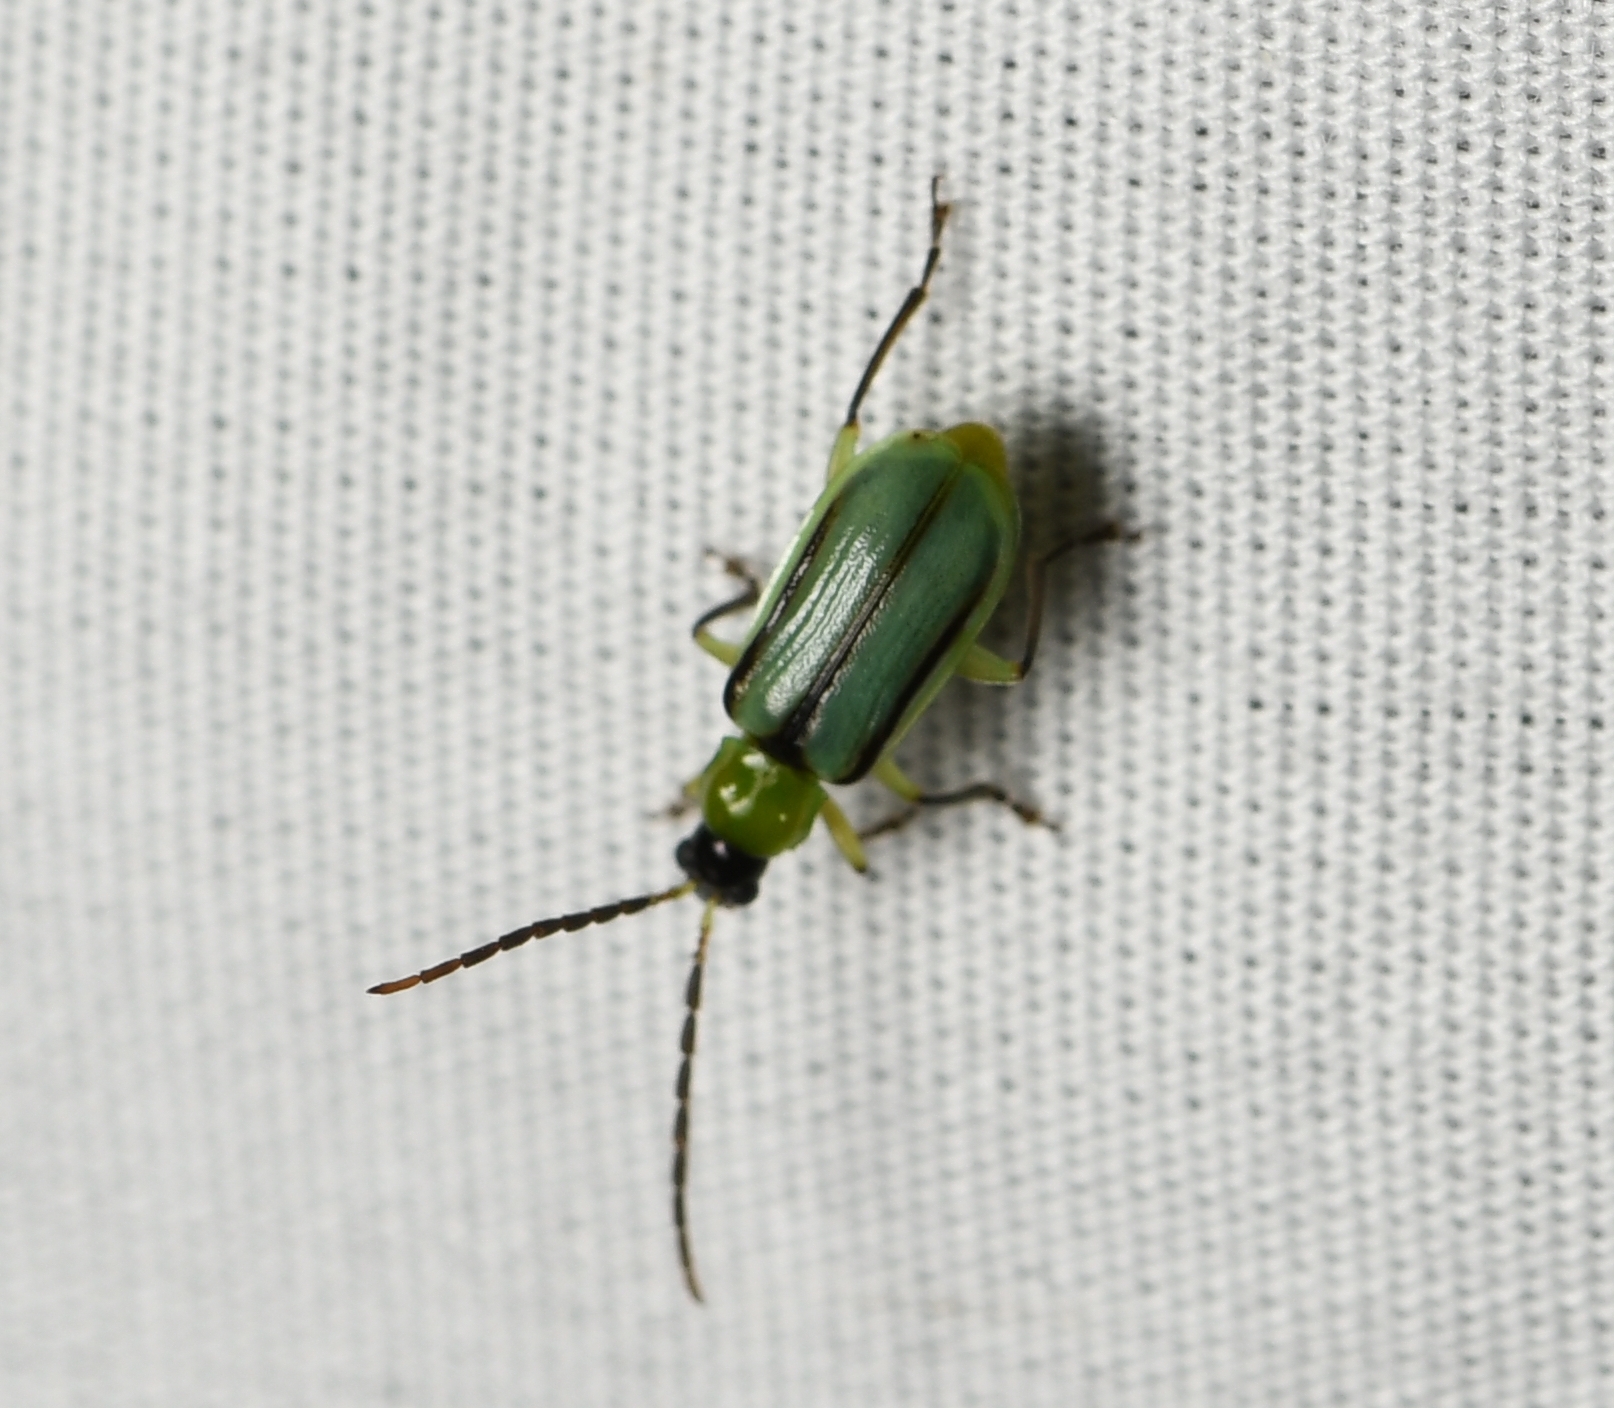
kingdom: Animalia
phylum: Arthropoda
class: Insecta
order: Coleoptera
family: Chrysomelidae
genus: Diabrotica
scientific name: Diabrotica longicornis
